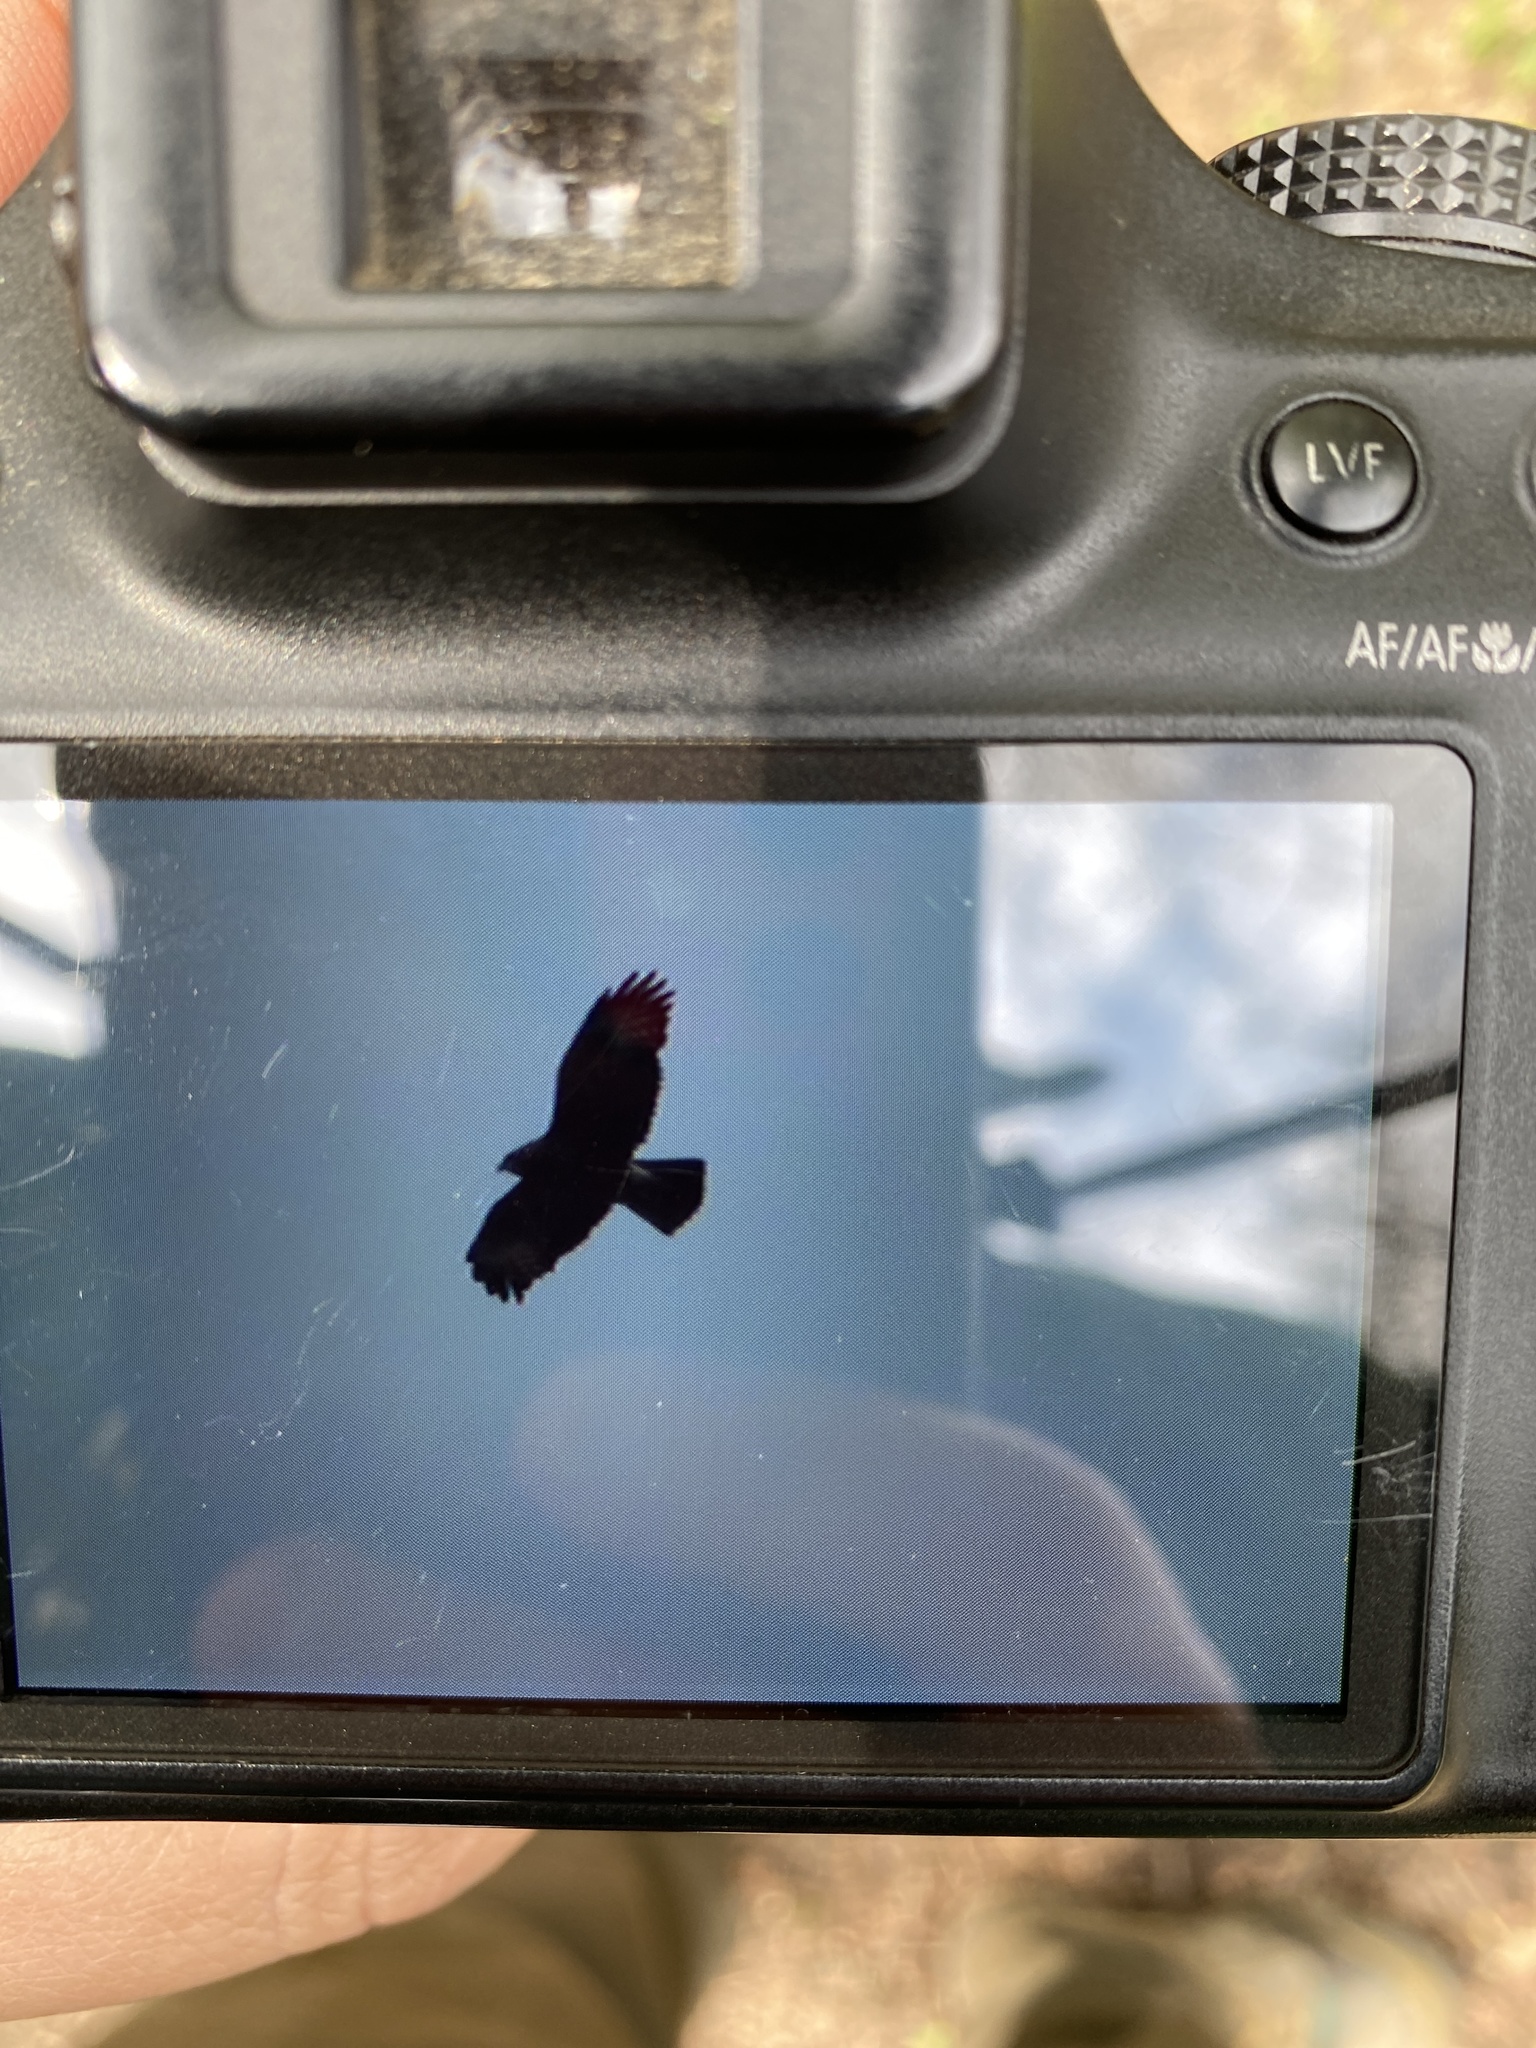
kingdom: Animalia
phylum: Chordata
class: Aves
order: Accipitriformes
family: Accipitridae
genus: Buteo
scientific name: Buteo buteo
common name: Common buzzard
